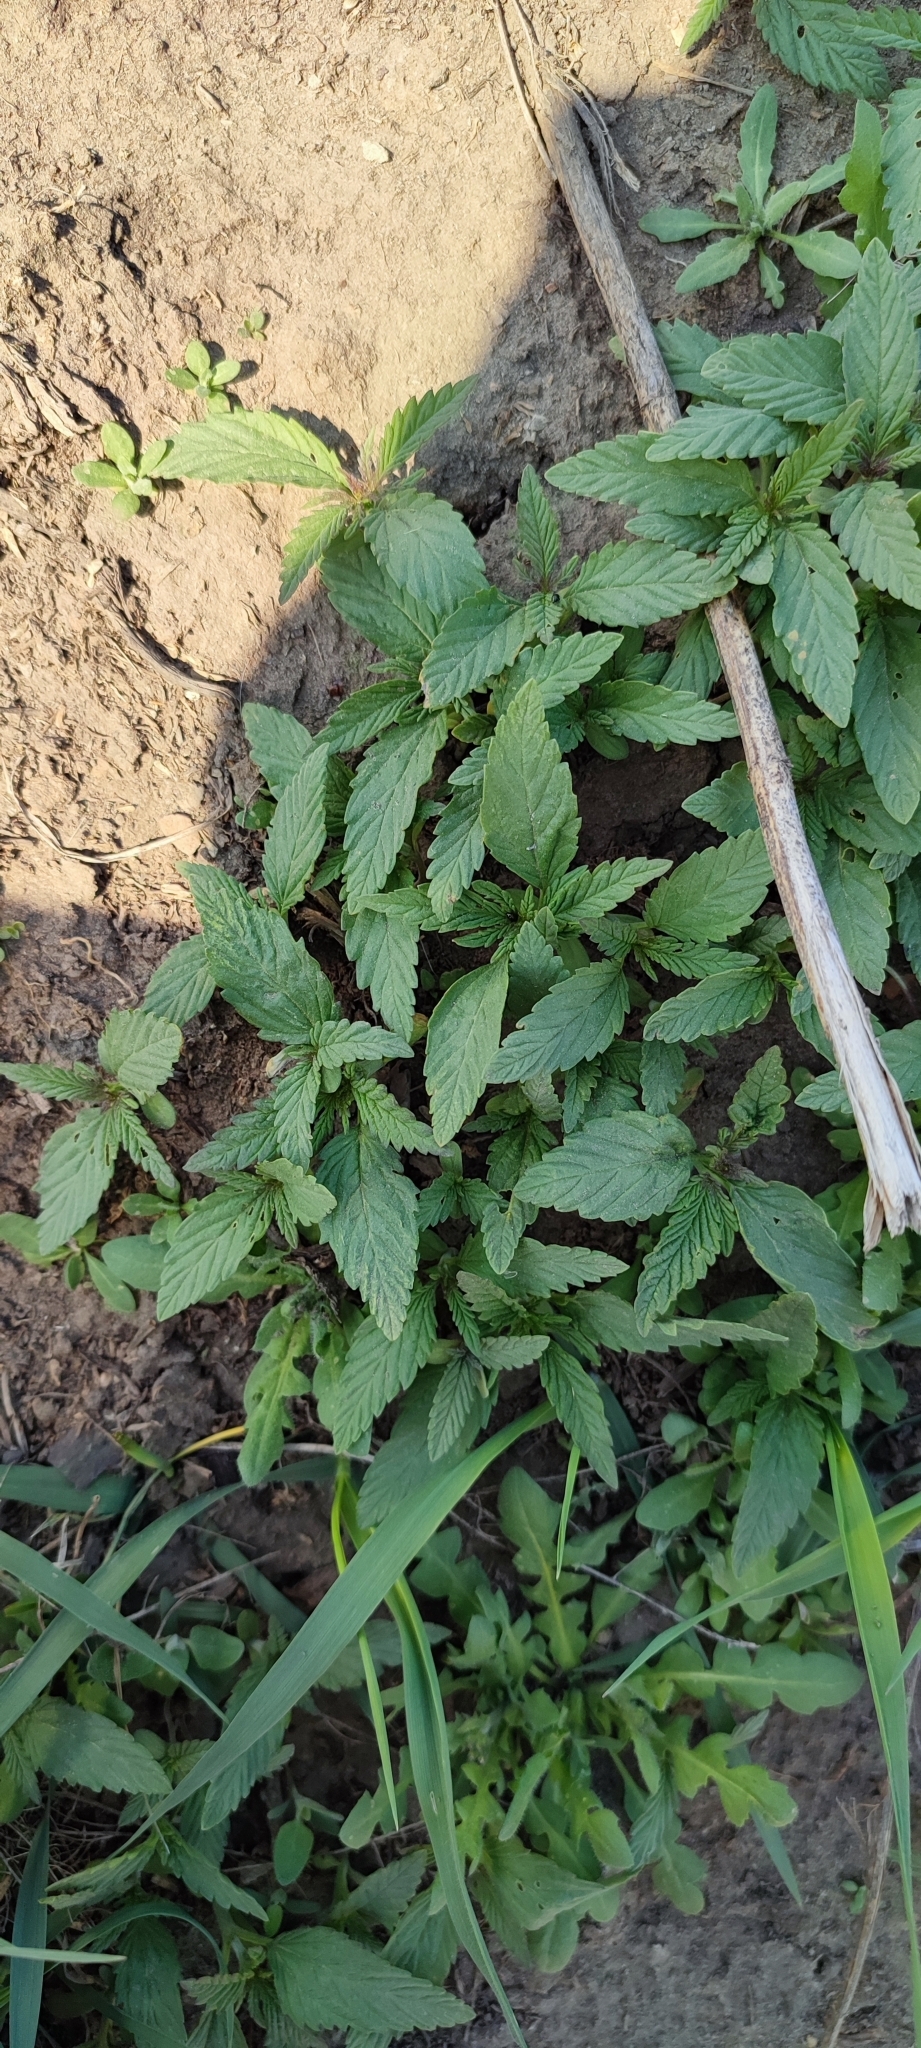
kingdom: Plantae
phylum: Tracheophyta
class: Magnoliopsida
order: Lamiales
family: Lamiaceae
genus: Galeopsis
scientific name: Galeopsis bifida
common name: Bifid hemp-nettle
